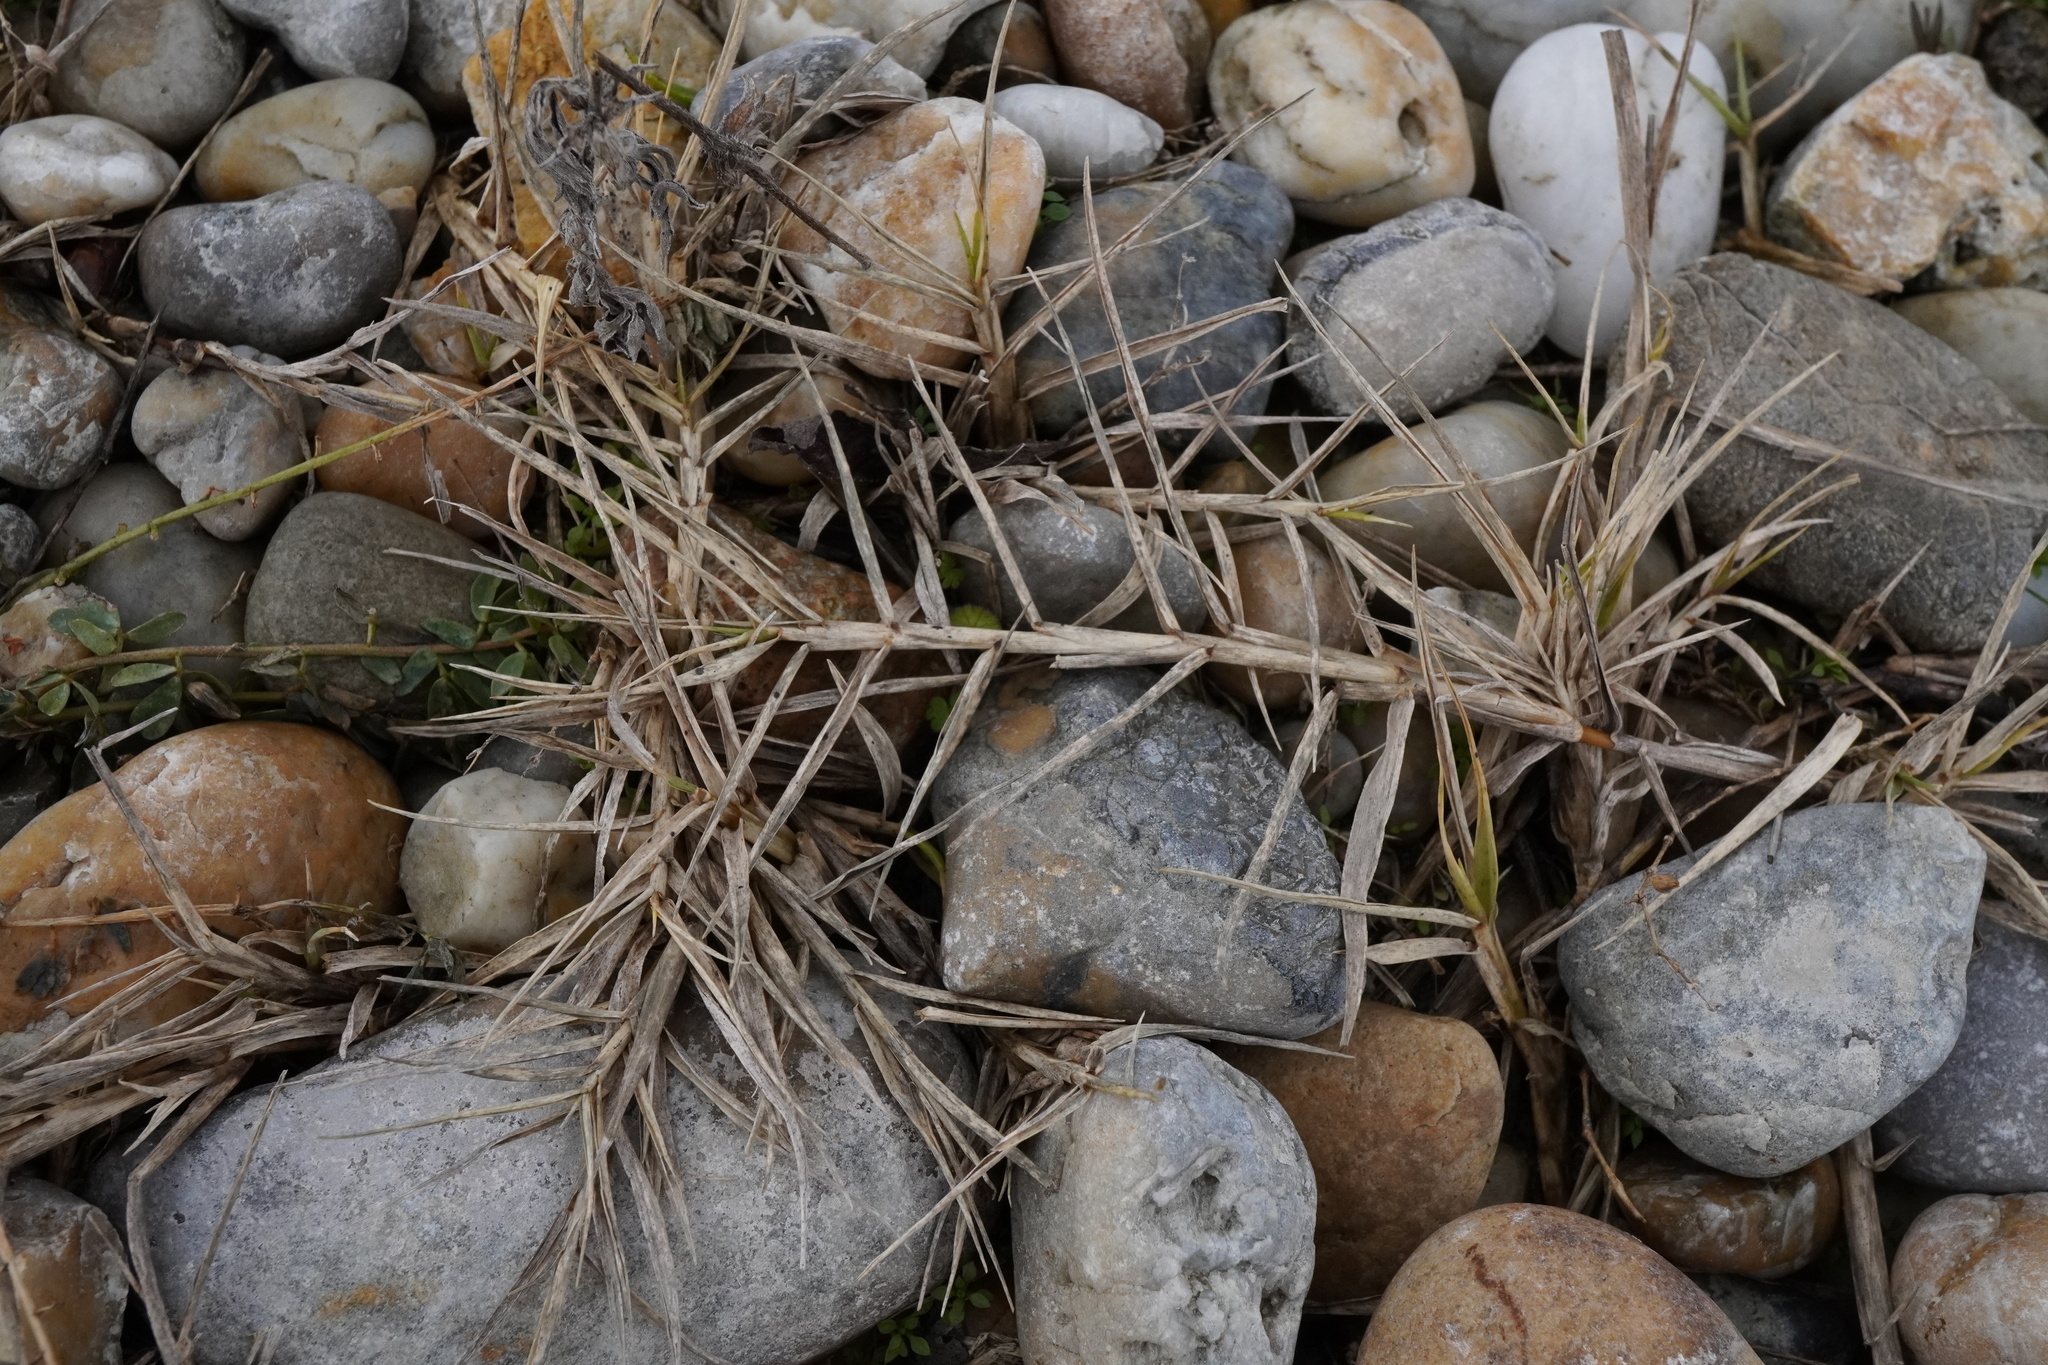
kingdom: Plantae
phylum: Tracheophyta
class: Liliopsida
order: Poales
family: Poaceae
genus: Cynodon
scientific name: Cynodon dactylon
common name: Bermuda grass
